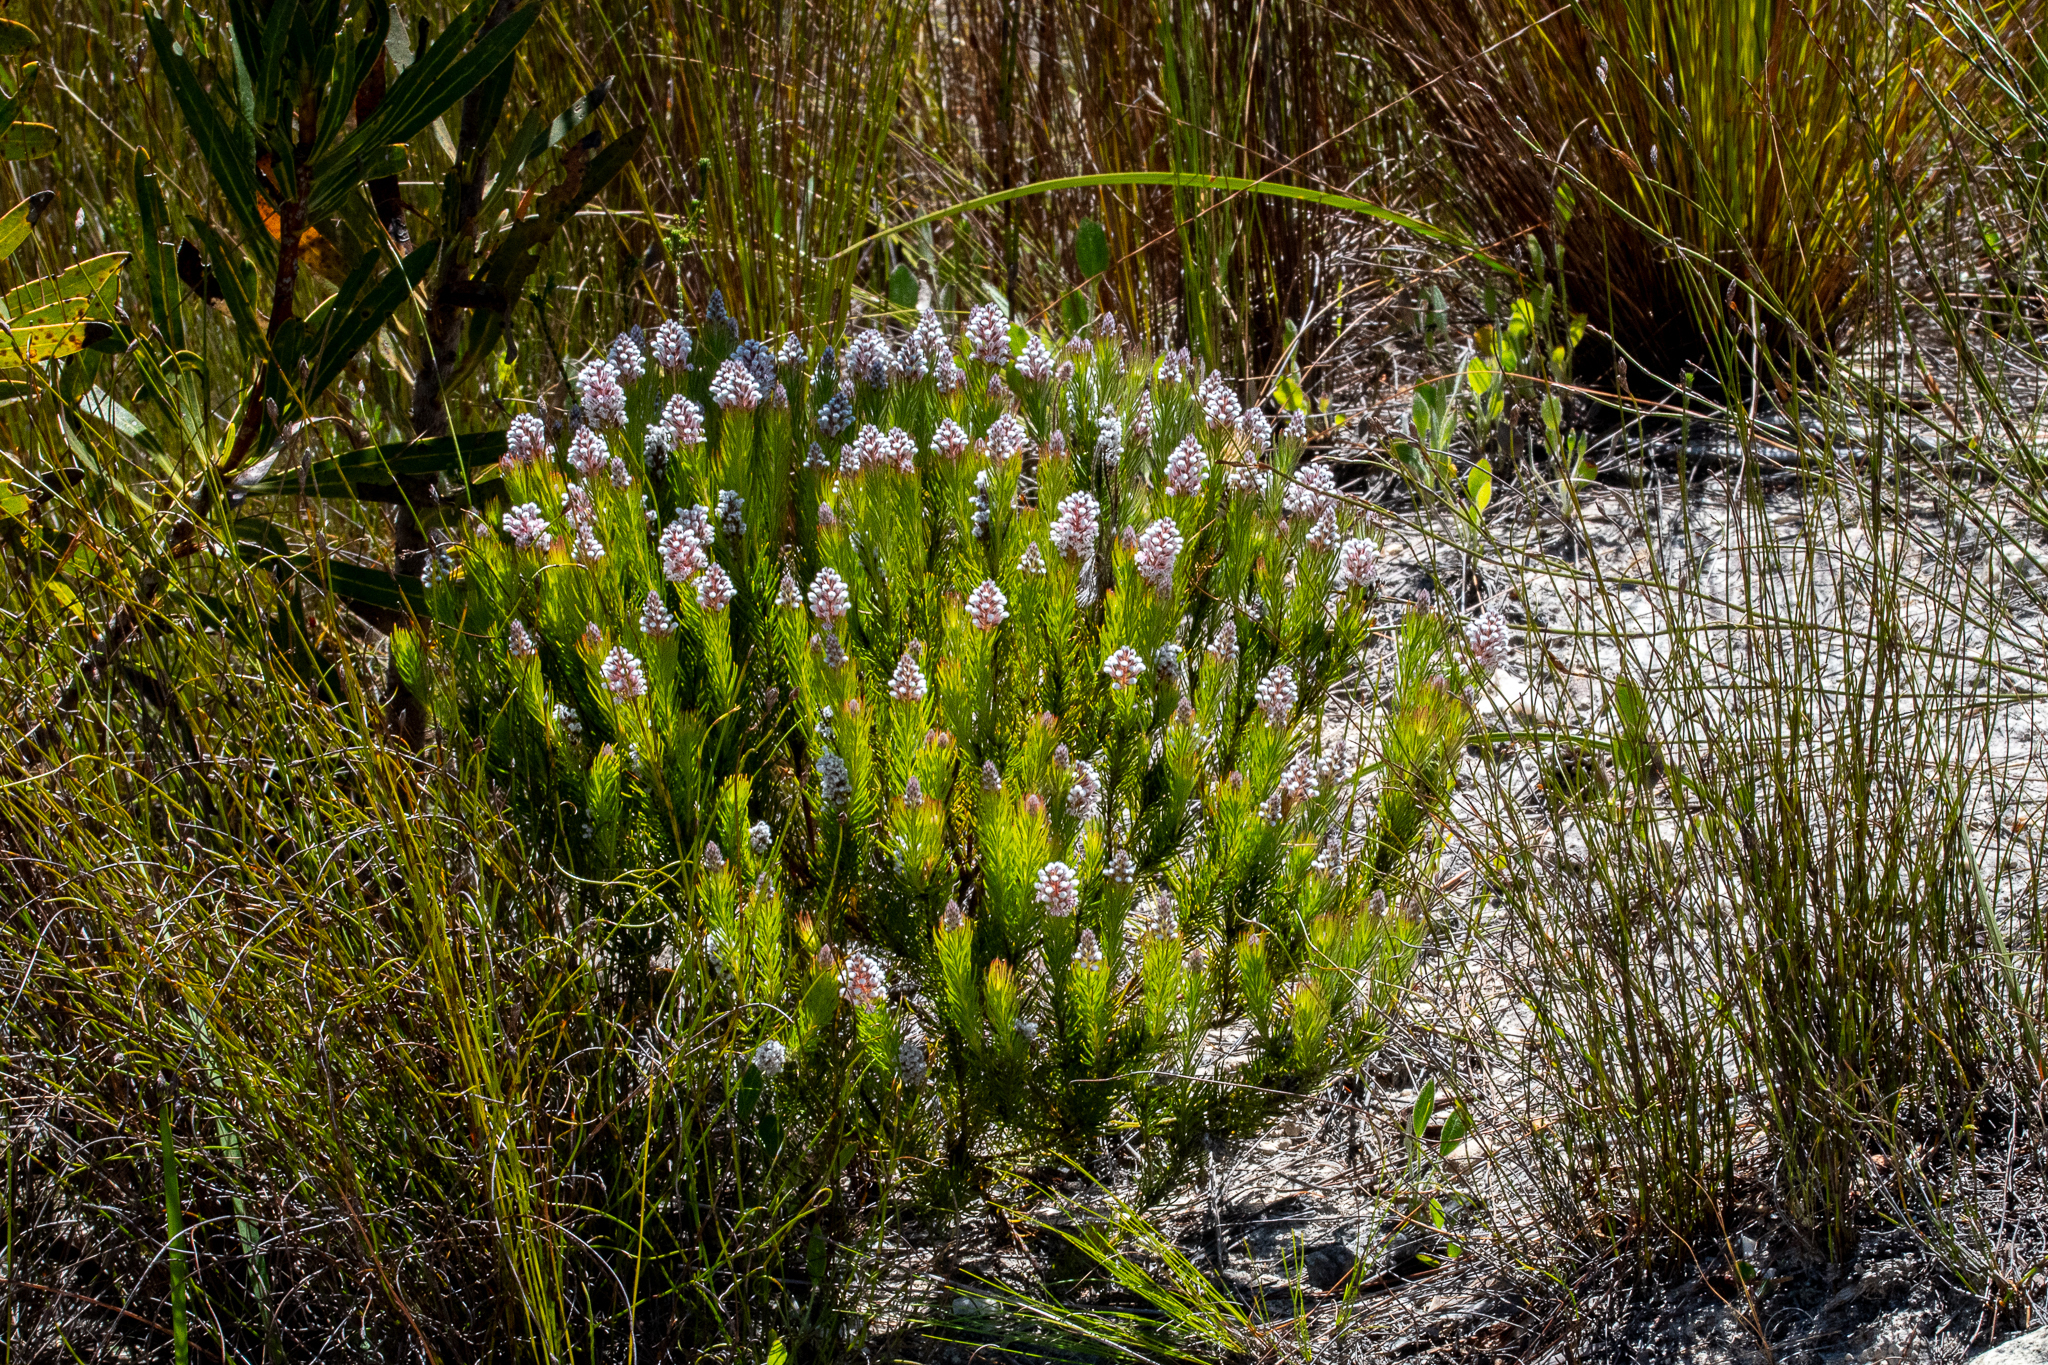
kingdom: Plantae
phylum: Tracheophyta
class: Magnoliopsida
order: Proteales
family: Proteaceae
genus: Spatalla
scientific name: Spatalla mollis
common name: Woolly spoon
